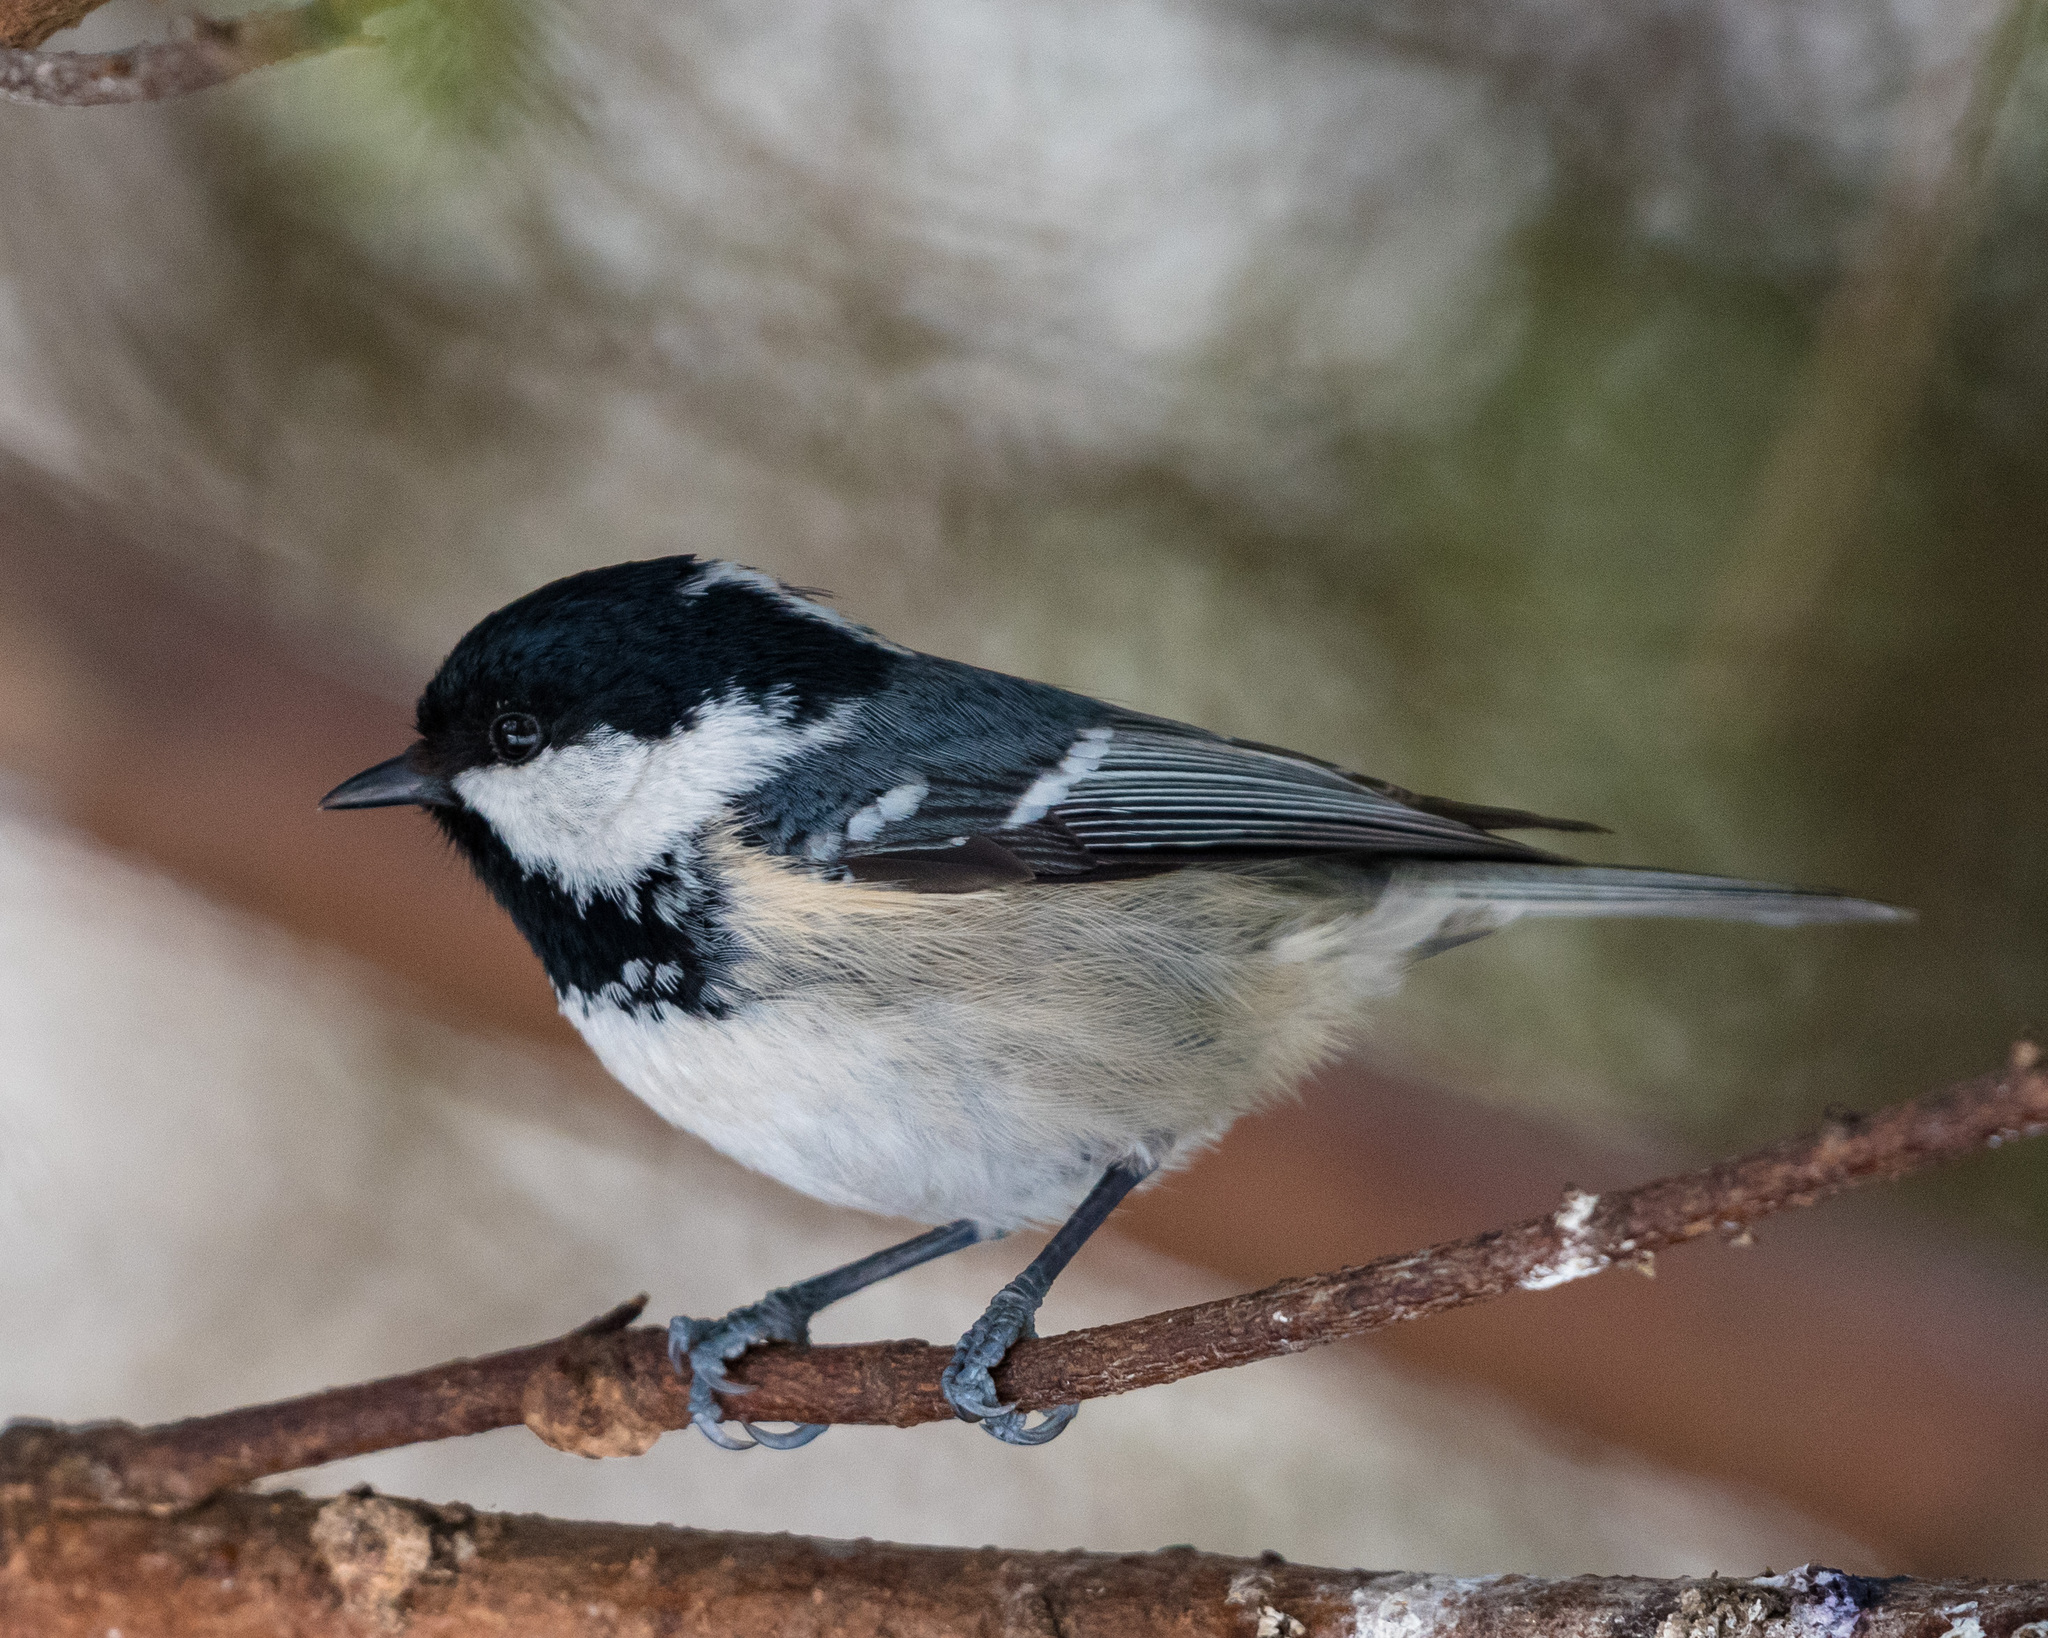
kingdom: Animalia
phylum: Chordata
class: Aves
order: Passeriformes
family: Paridae
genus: Periparus
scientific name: Periparus ater
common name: Coal tit
